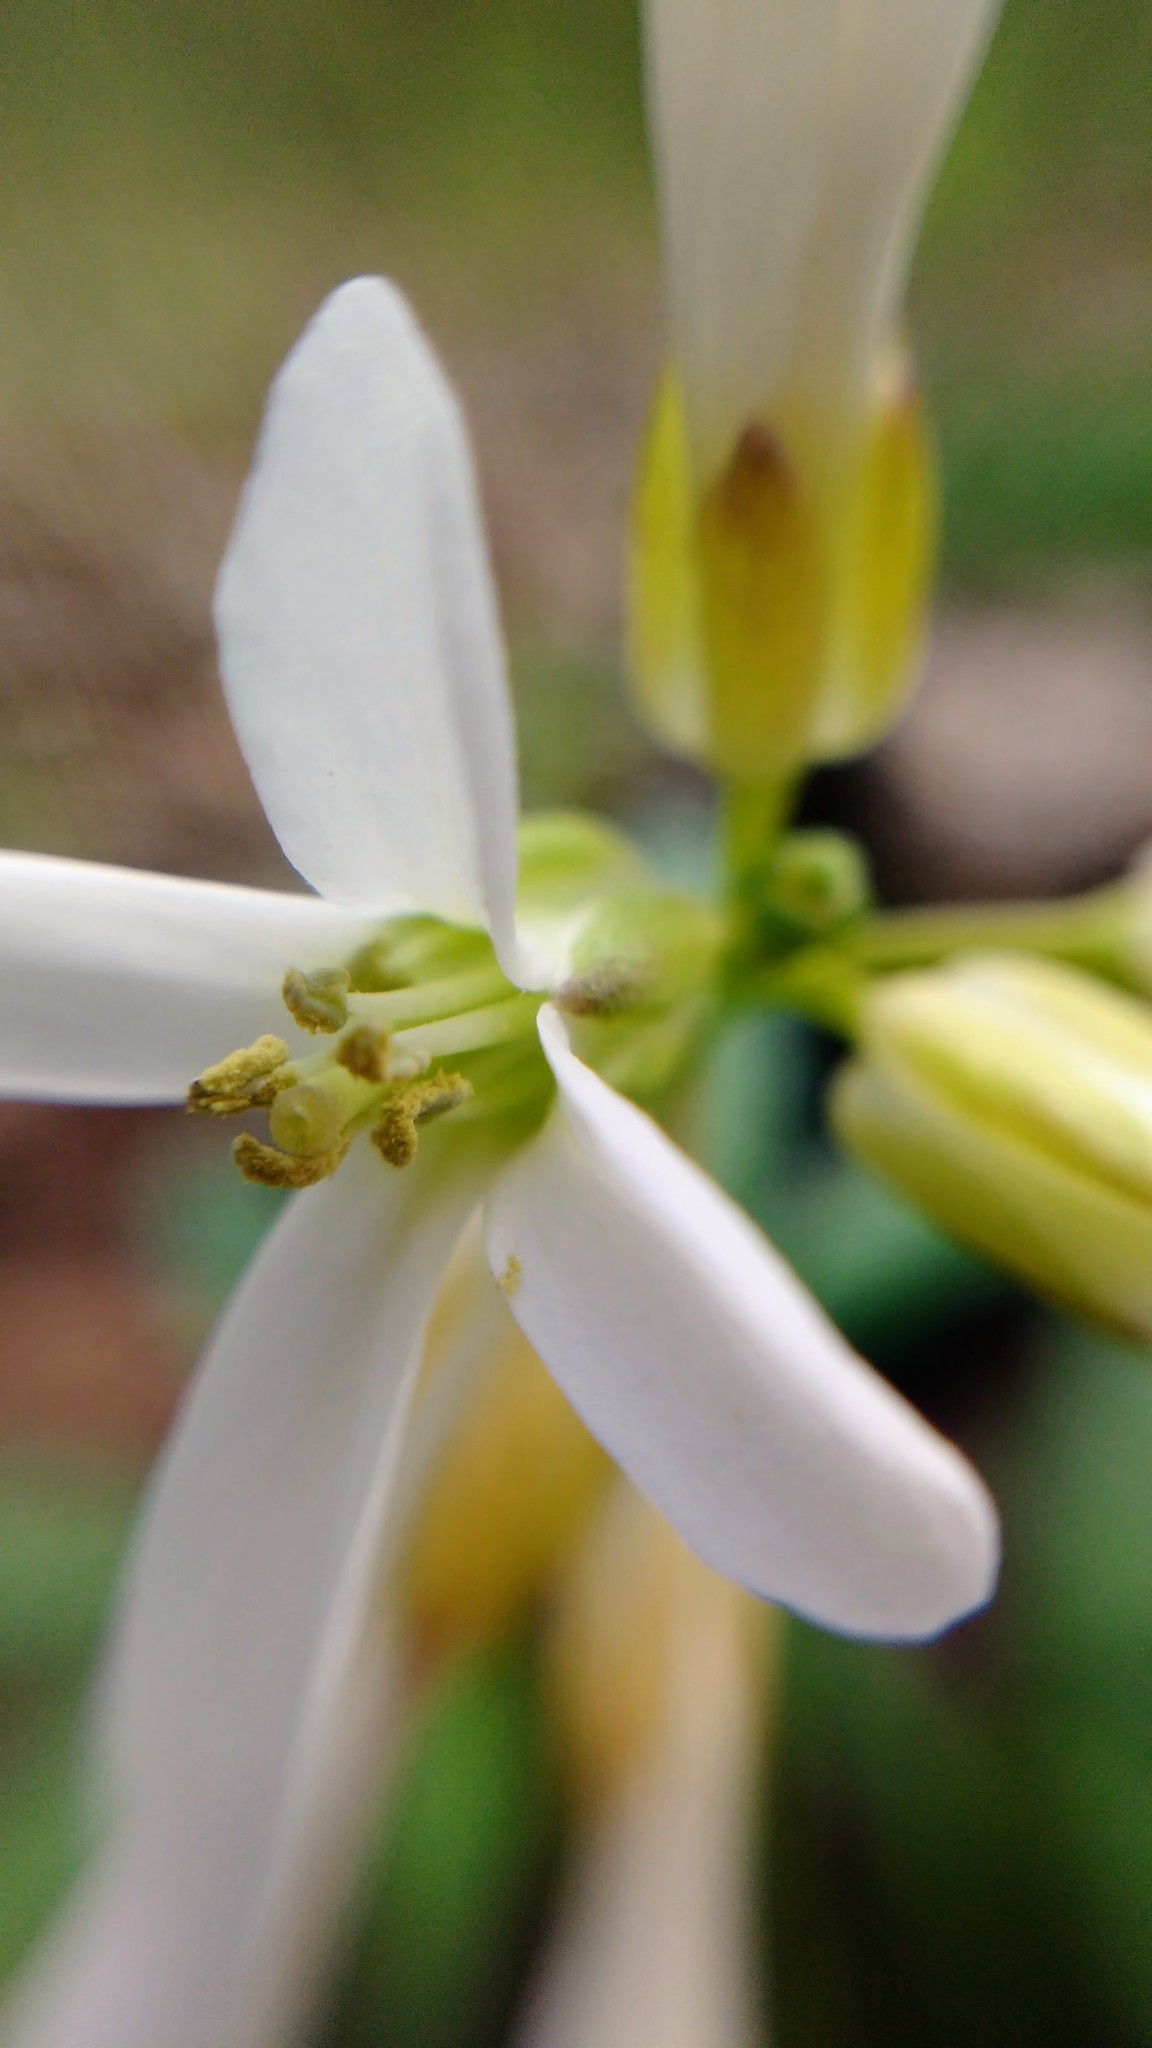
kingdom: Plantae
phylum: Tracheophyta
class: Magnoliopsida
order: Brassicales
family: Brassicaceae
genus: Cardamine
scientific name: Cardamine concatenata
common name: Cut-leaf toothcup
